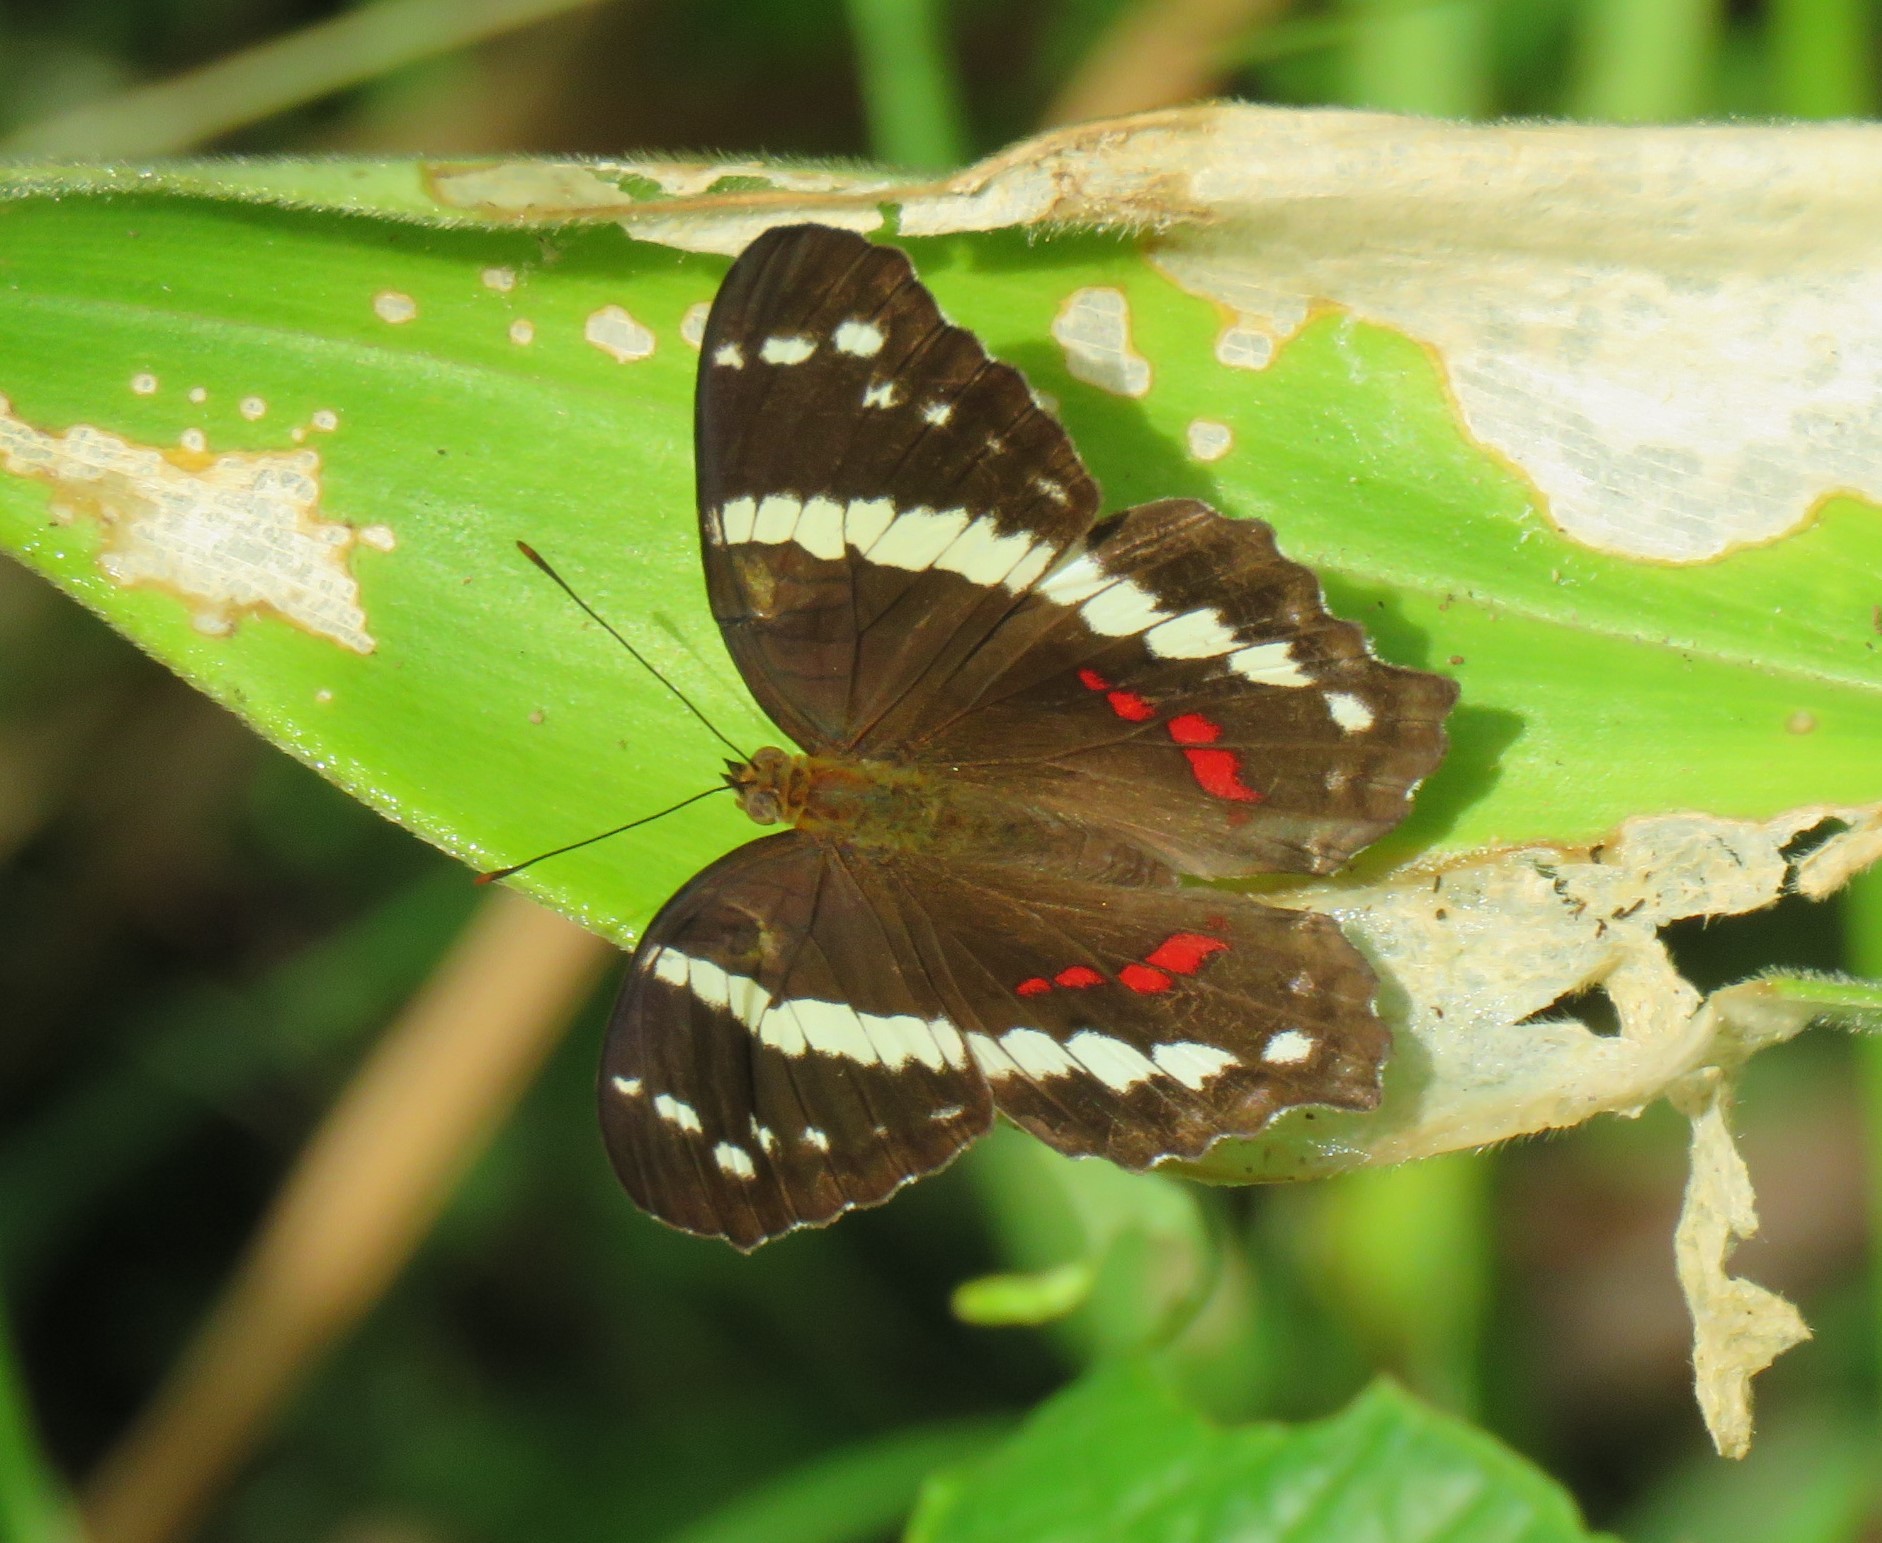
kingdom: Animalia
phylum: Arthropoda
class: Insecta
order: Lepidoptera
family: Nymphalidae
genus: Anartia
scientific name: Anartia fatima
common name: Banded peacock
